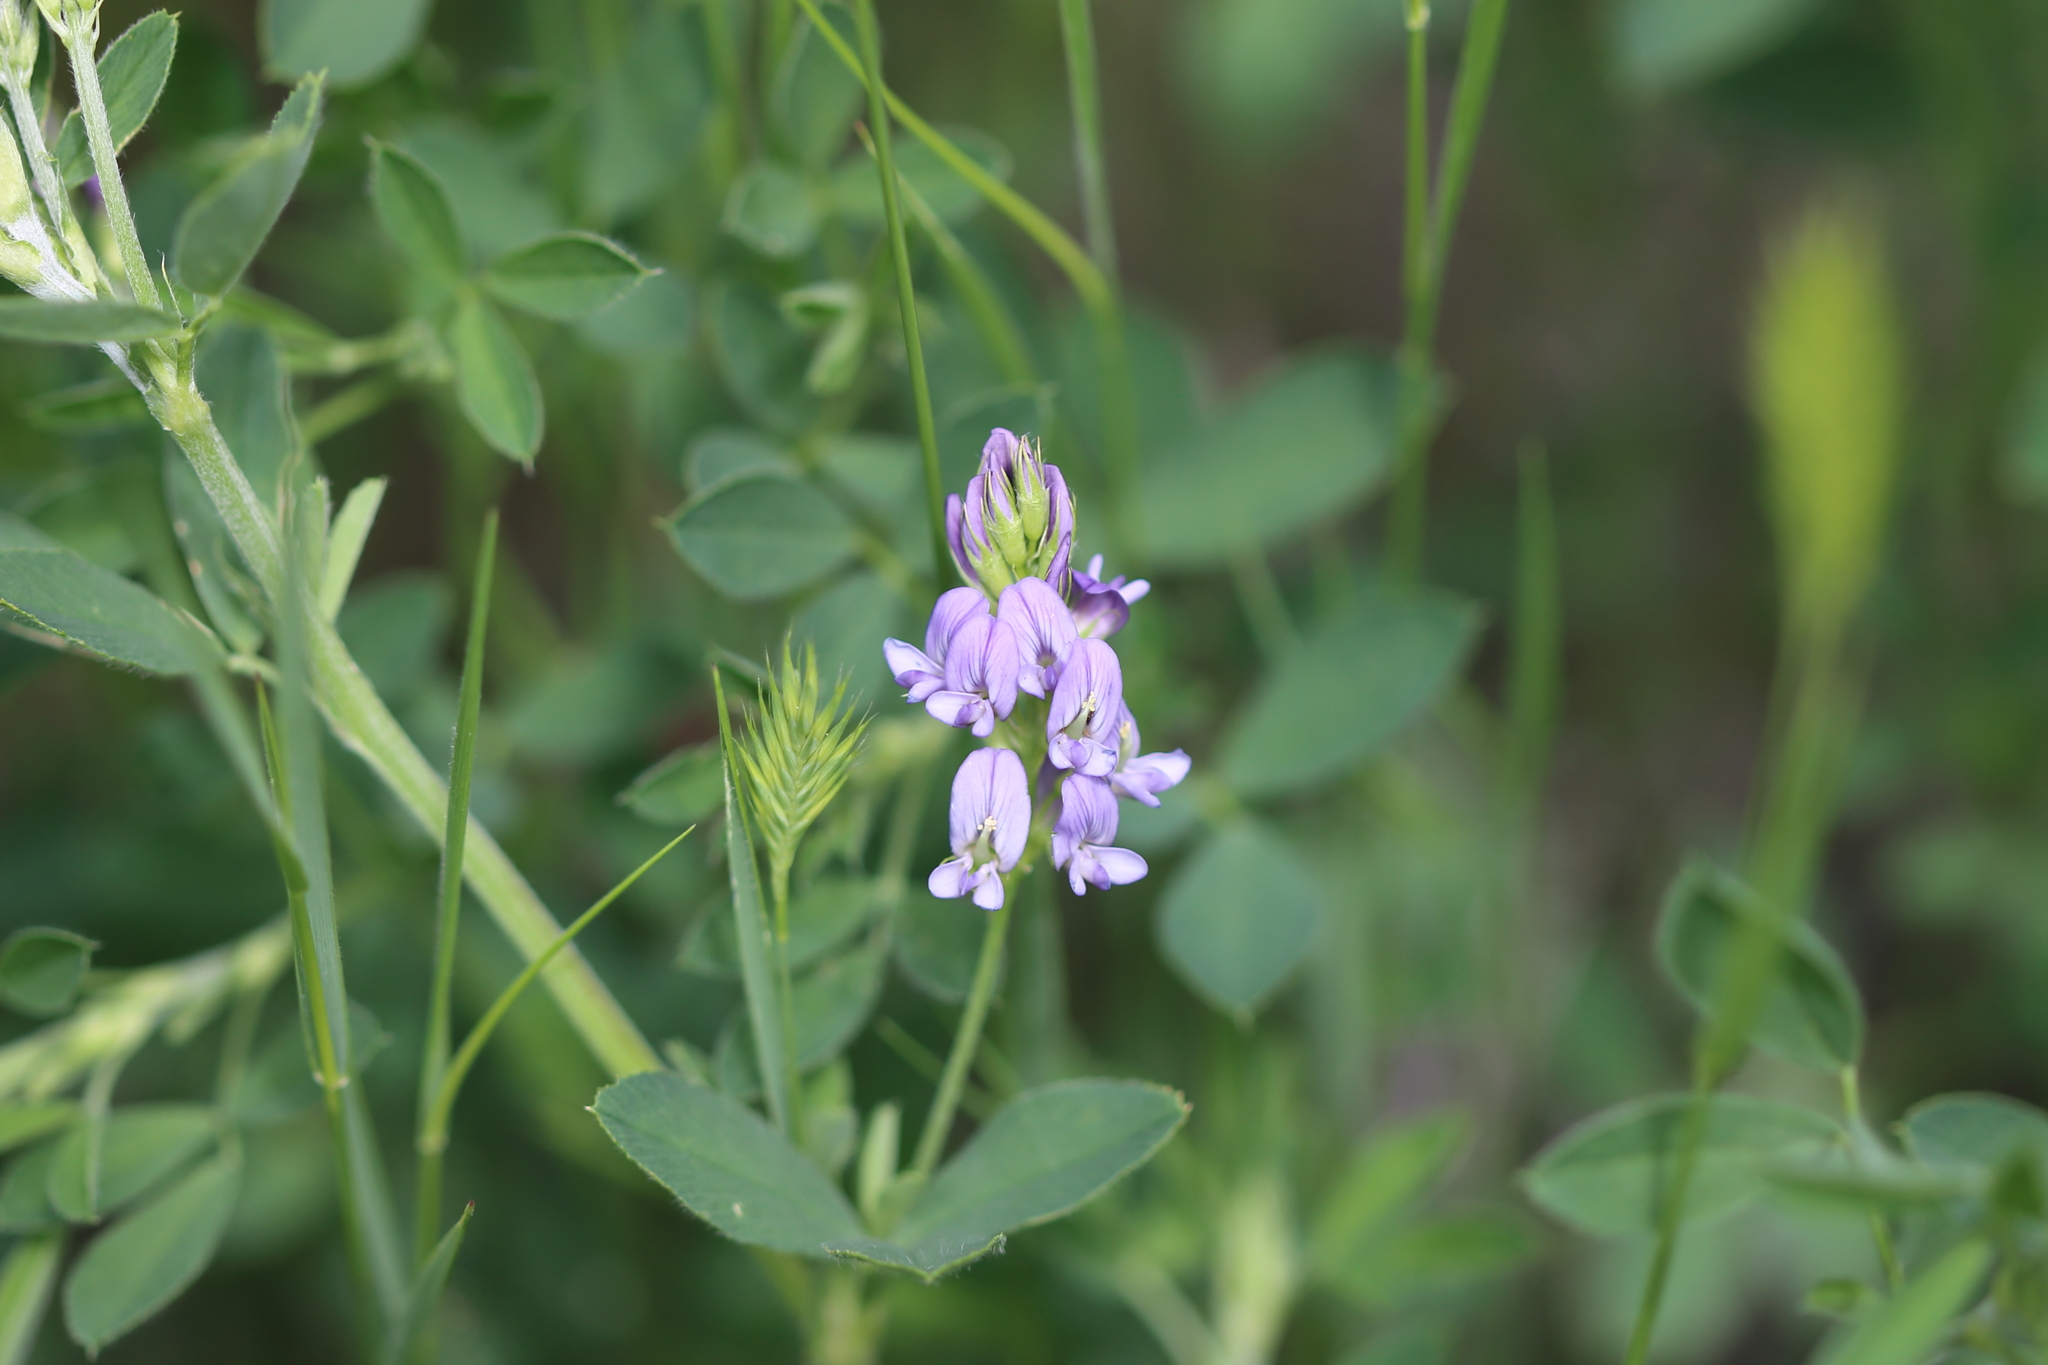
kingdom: Plantae
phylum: Tracheophyta
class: Magnoliopsida
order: Fabales
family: Fabaceae
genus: Medicago
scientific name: Medicago sativa
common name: Alfalfa
